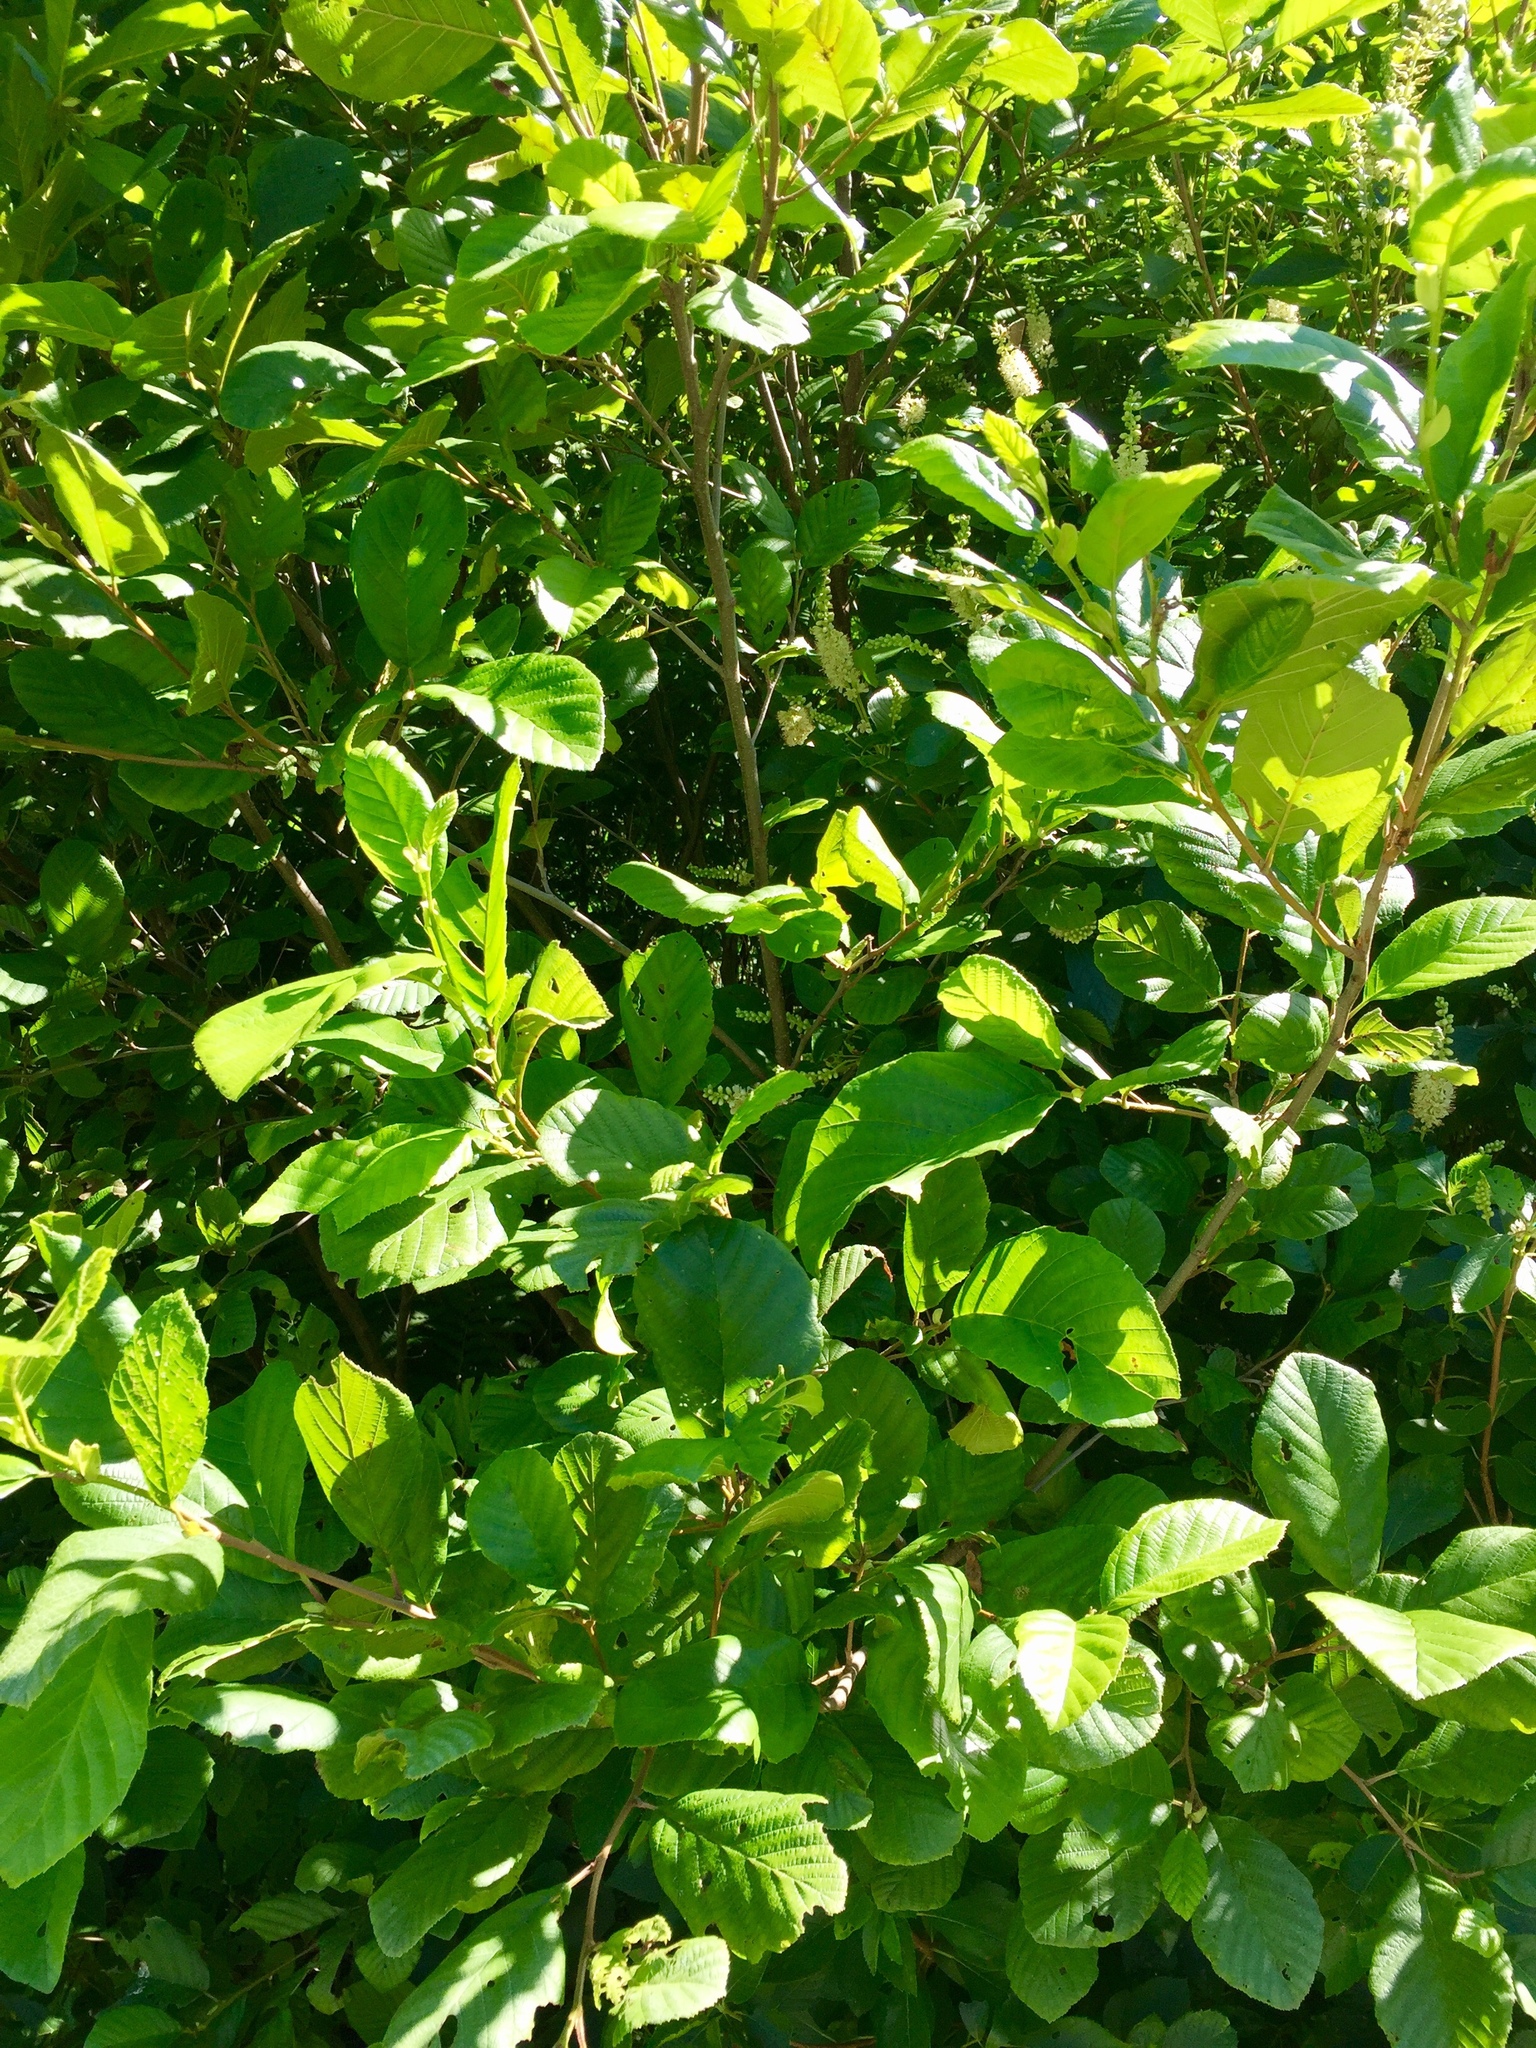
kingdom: Plantae
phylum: Tracheophyta
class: Magnoliopsida
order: Ericales
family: Clethraceae
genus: Clethra
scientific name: Clethra alnifolia
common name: Sweet pepperbush
